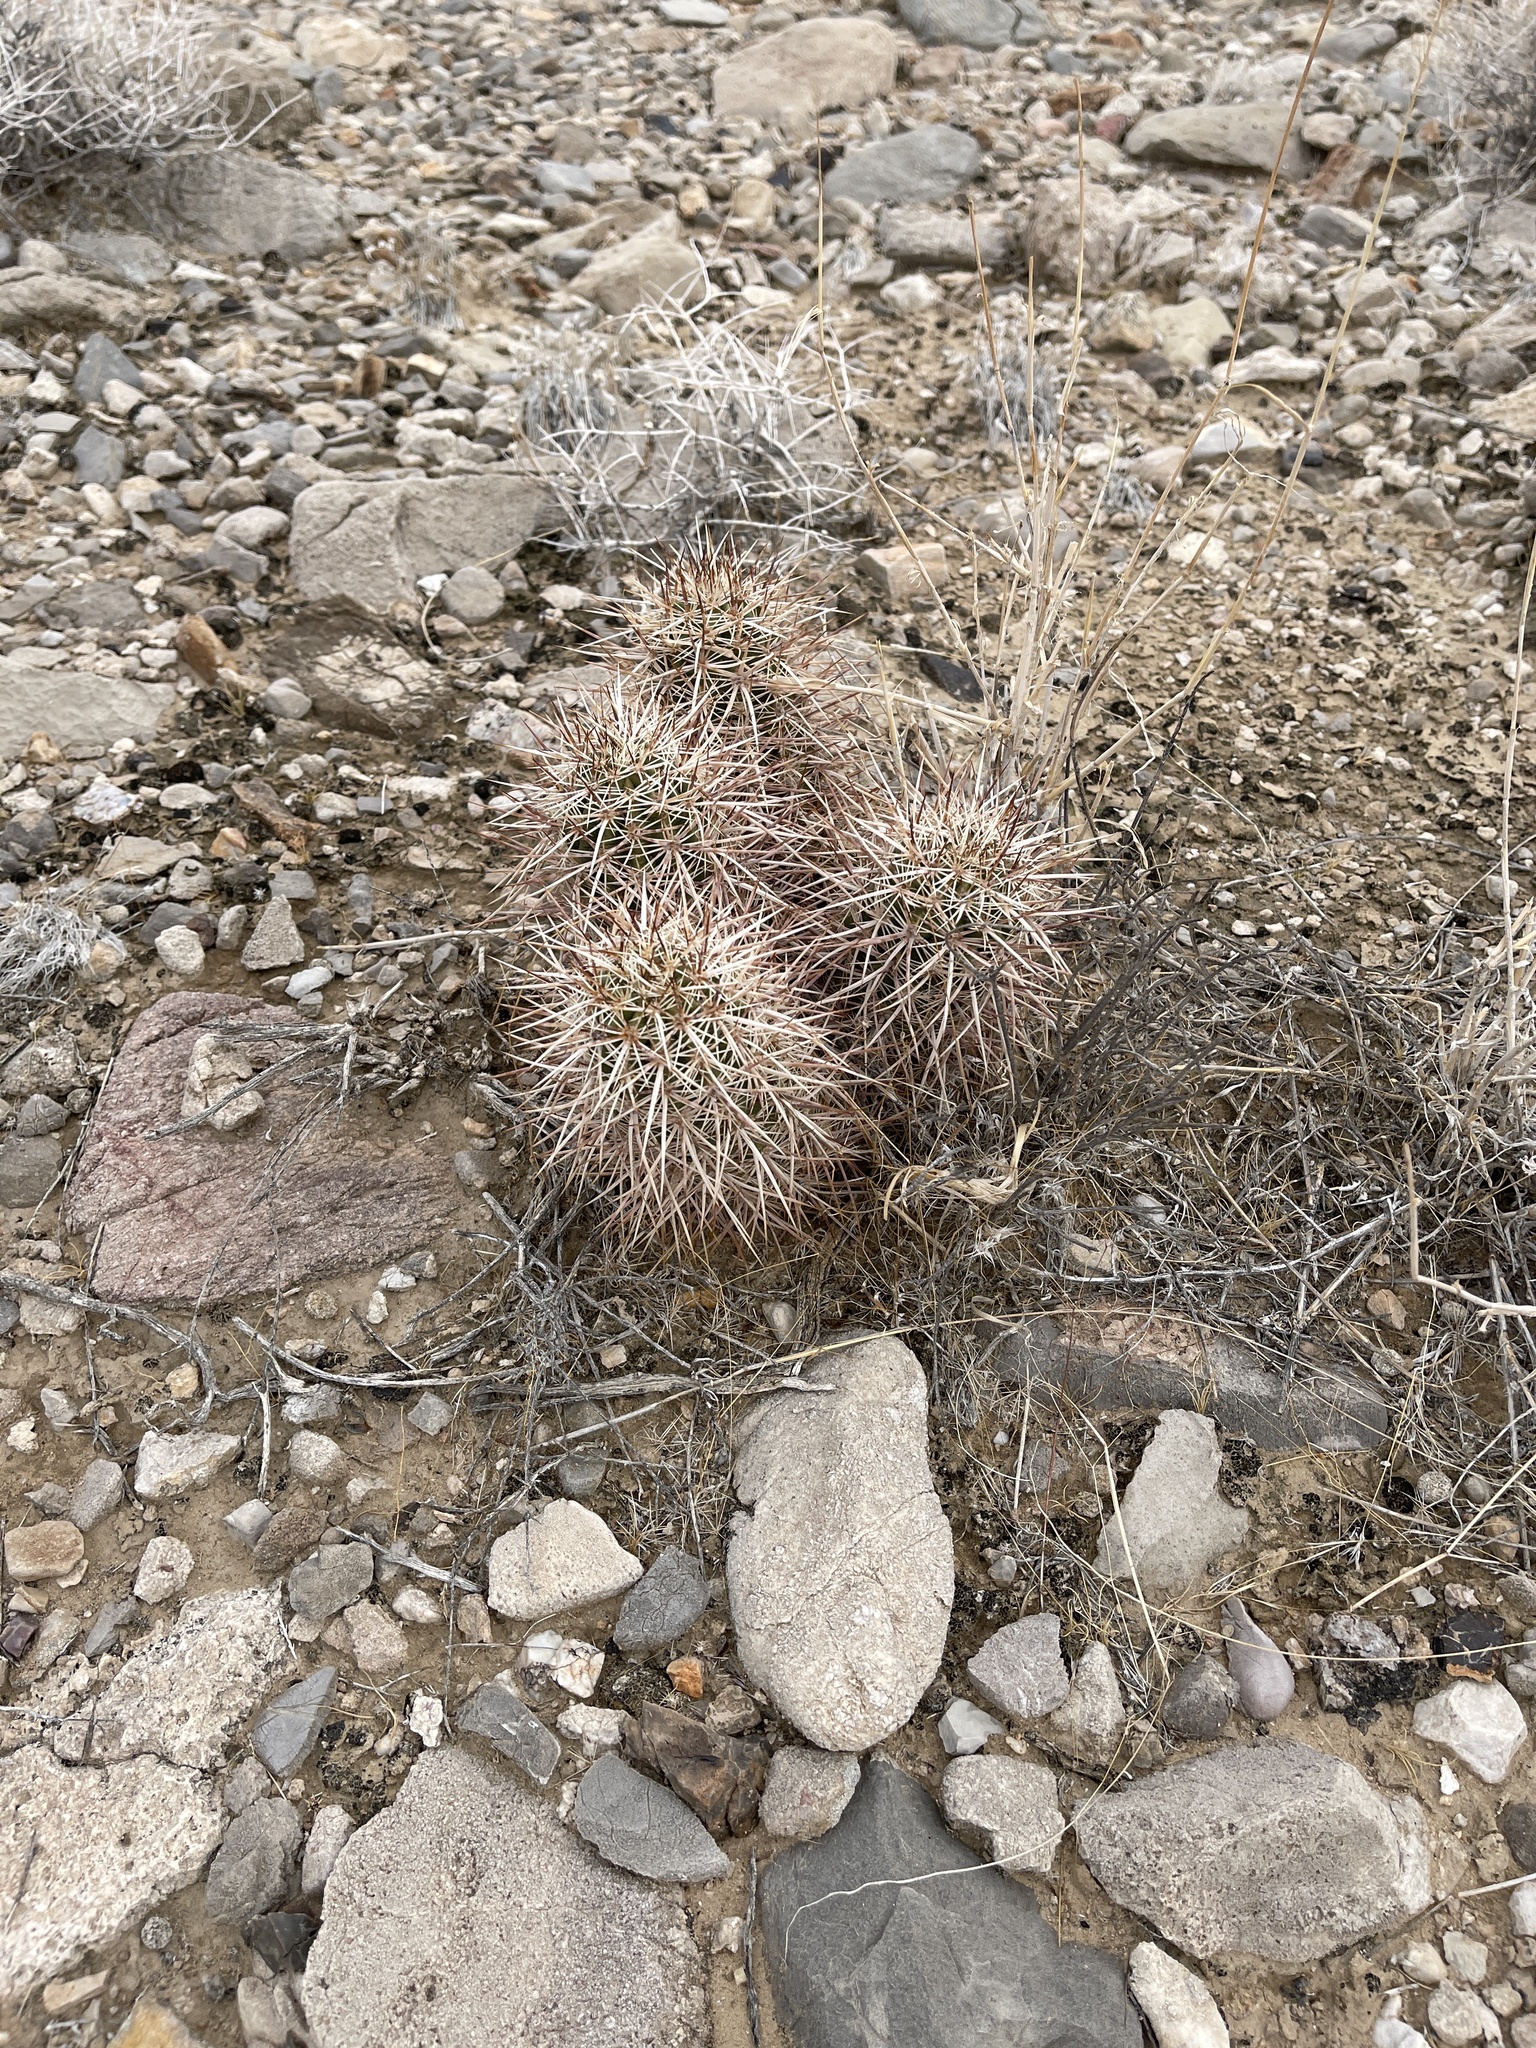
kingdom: Plantae
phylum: Tracheophyta
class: Magnoliopsida
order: Caryophyllales
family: Cactaceae
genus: Echinocereus
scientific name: Echinocereus engelmannii
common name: Engelmann's hedgehog cactus
